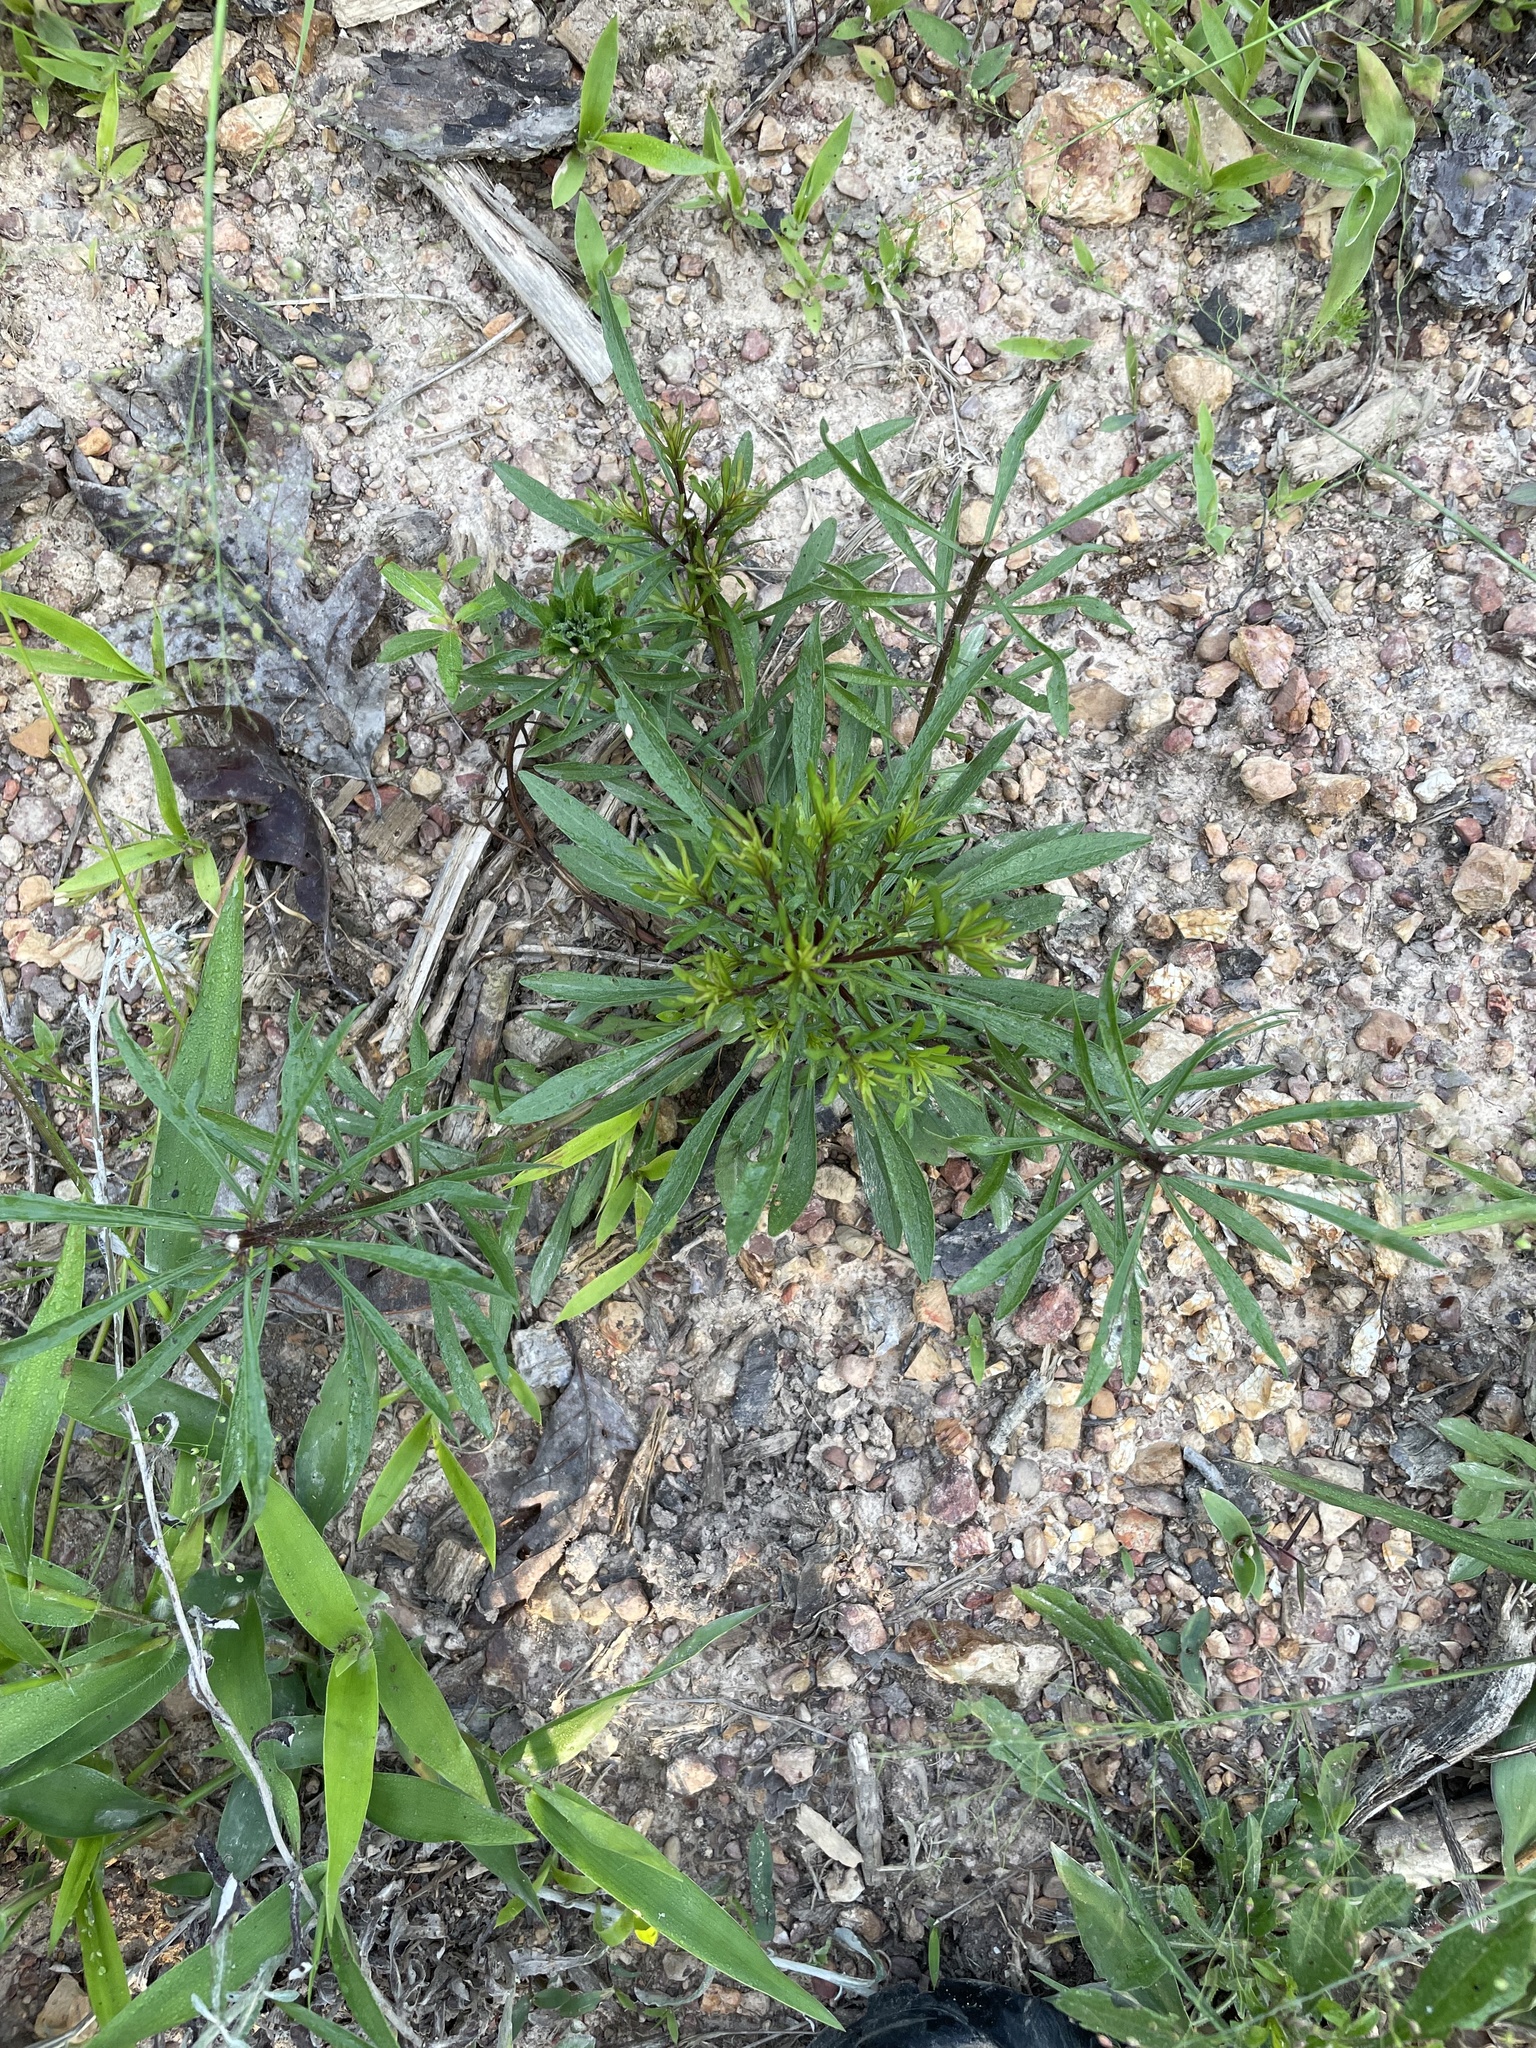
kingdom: Plantae
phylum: Tracheophyta
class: Magnoliopsida
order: Asterales
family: Asteraceae
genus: Solidago
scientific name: Solidago pinetorum
